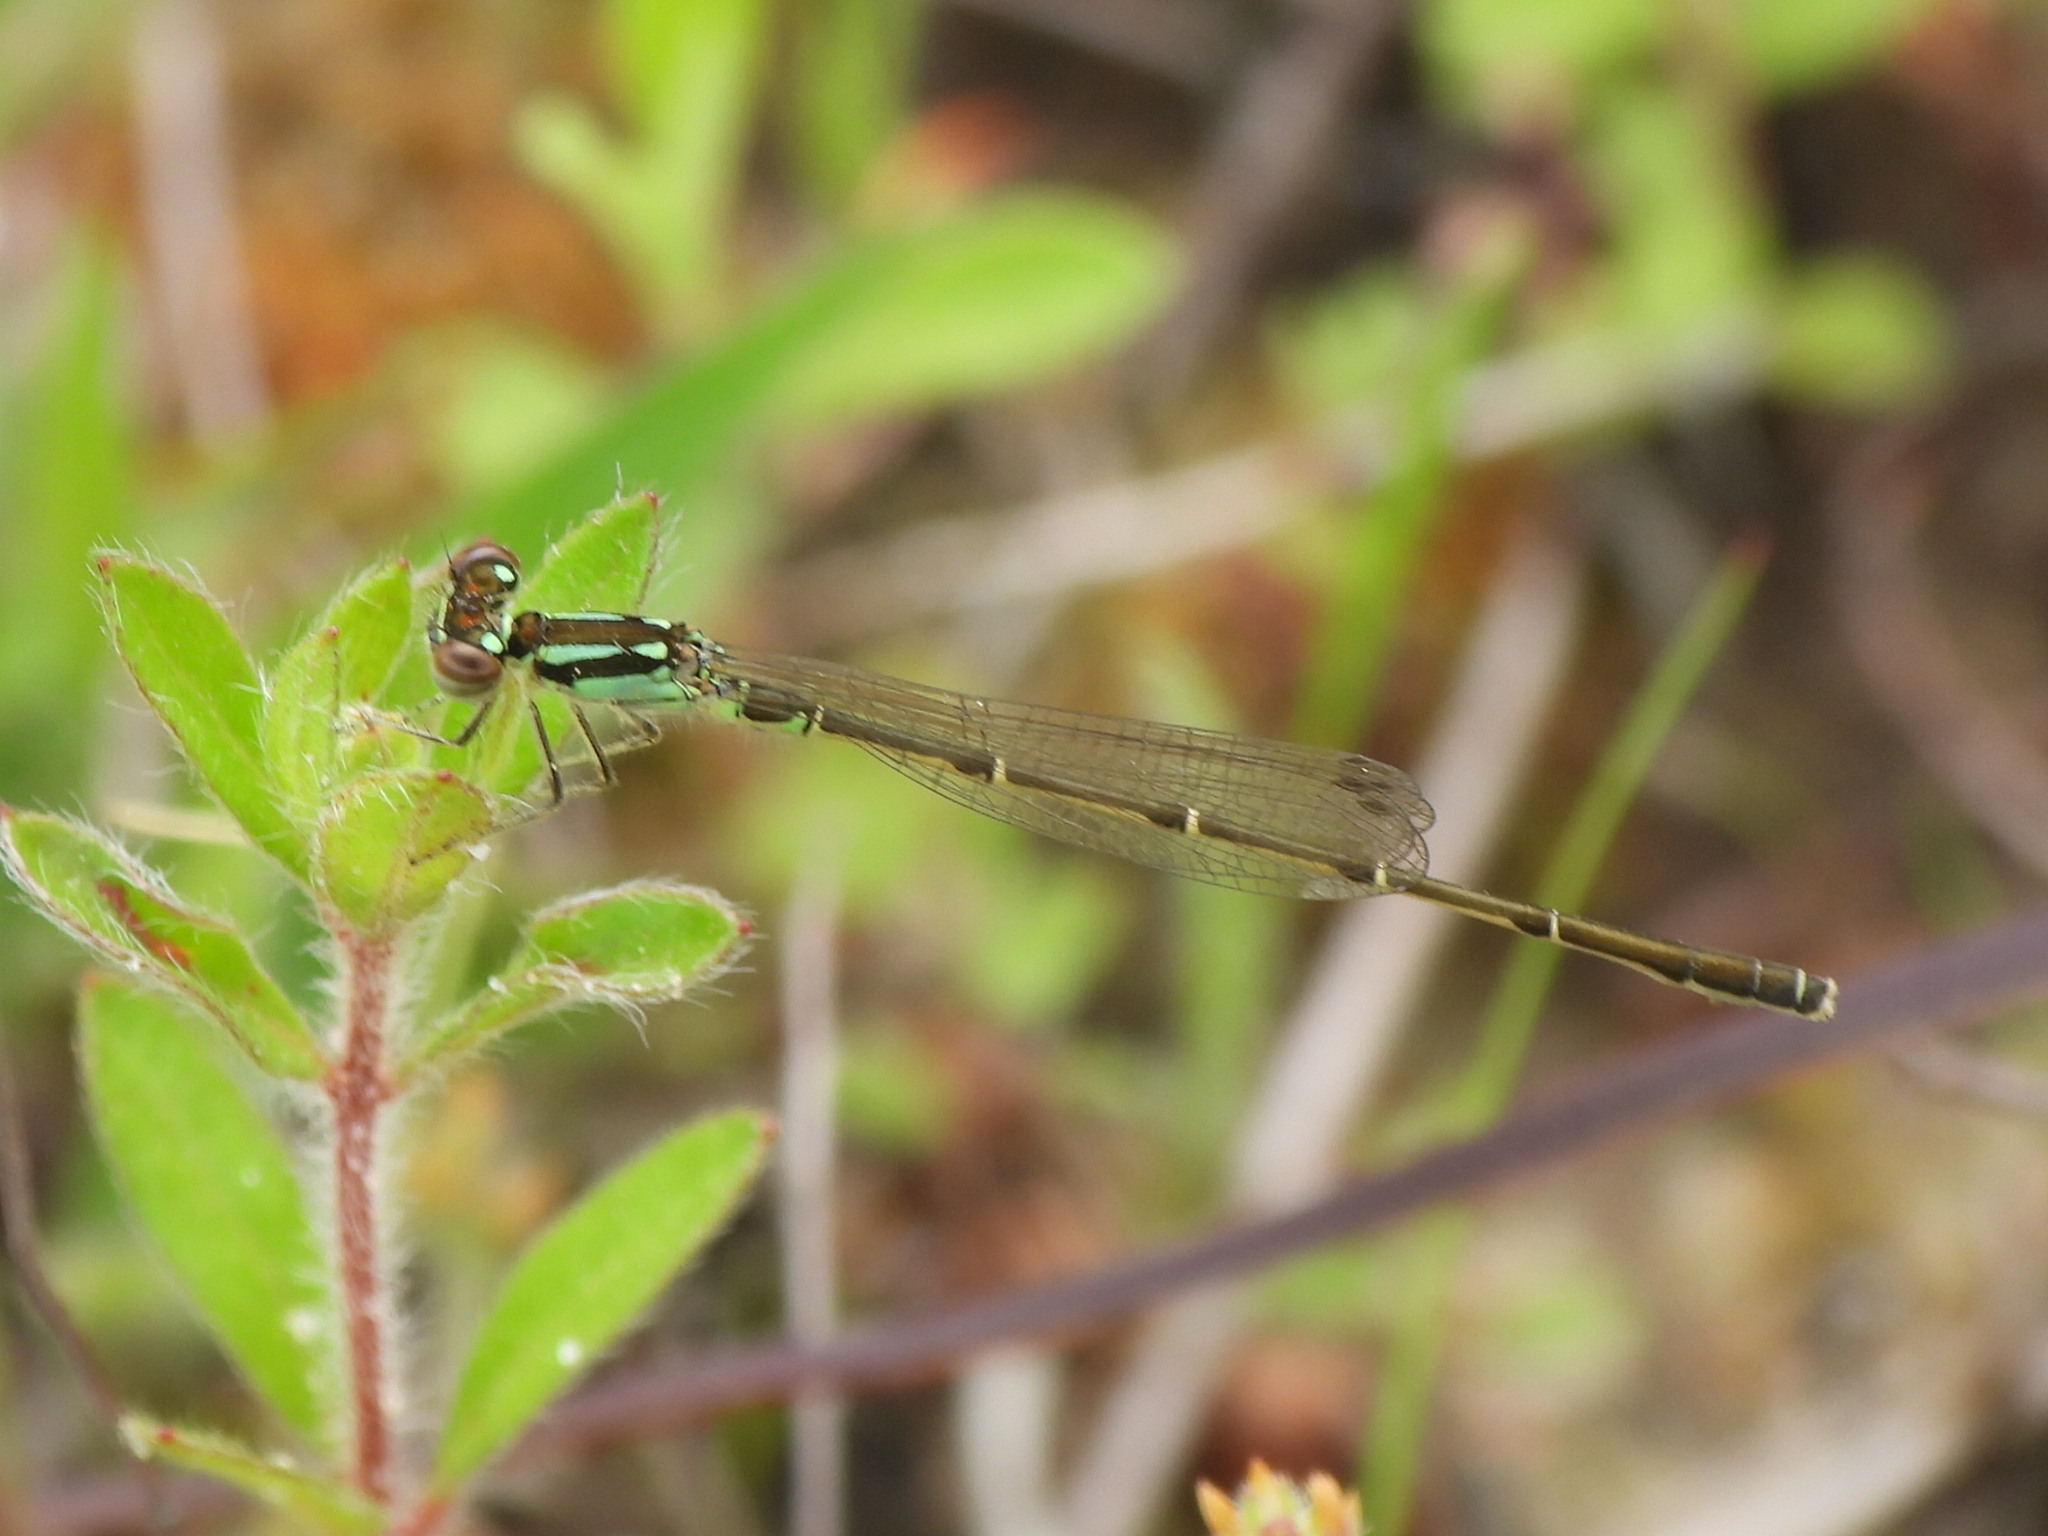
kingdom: Animalia
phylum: Arthropoda
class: Insecta
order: Odonata
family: Coenagrionidae
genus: Ischnura
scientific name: Ischnura posita
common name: Fragile forktail
